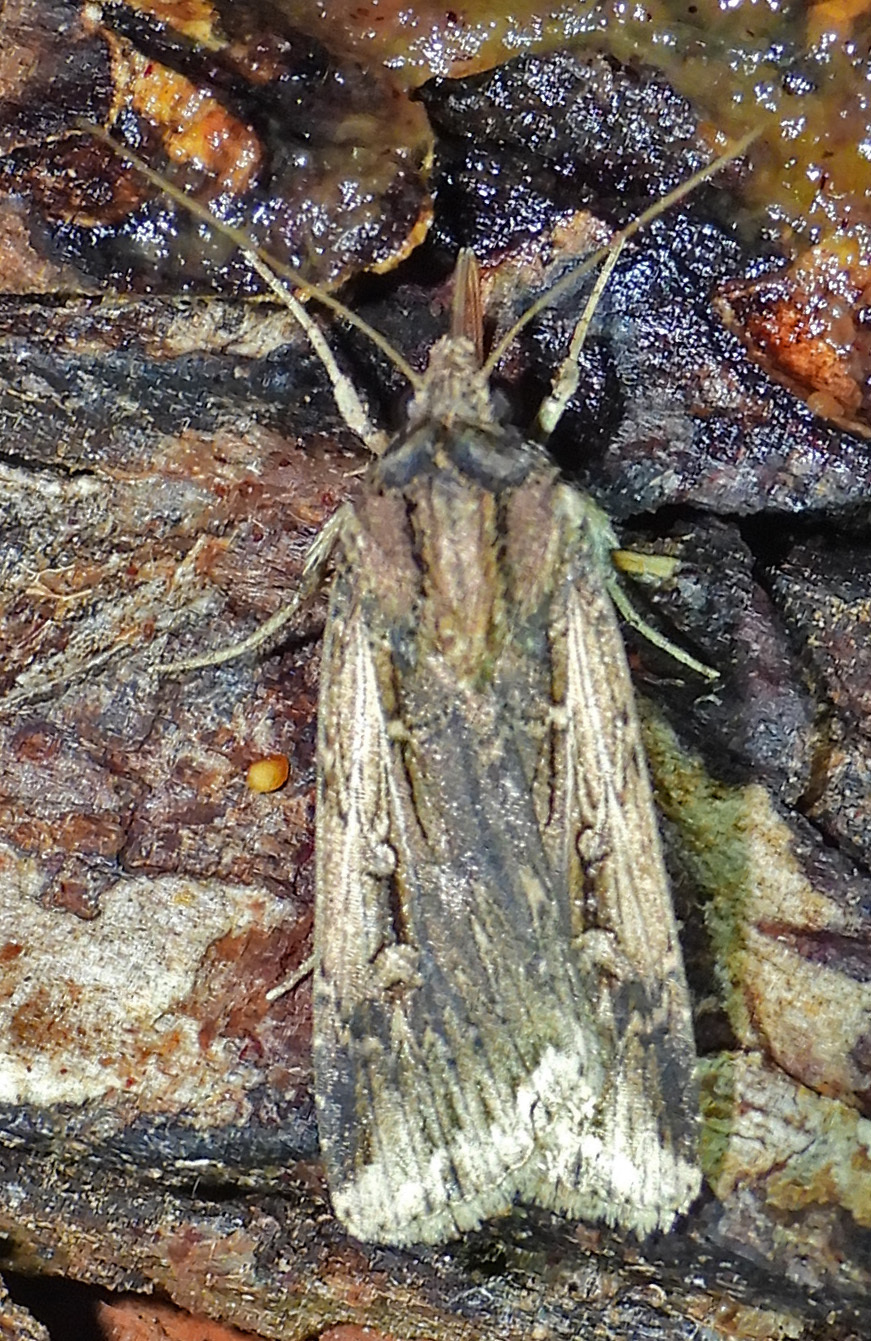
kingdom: Animalia
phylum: Arthropoda
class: Insecta
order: Lepidoptera
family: Noctuidae
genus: Feltia
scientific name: Feltia subterranea
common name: Granulate cutworm
